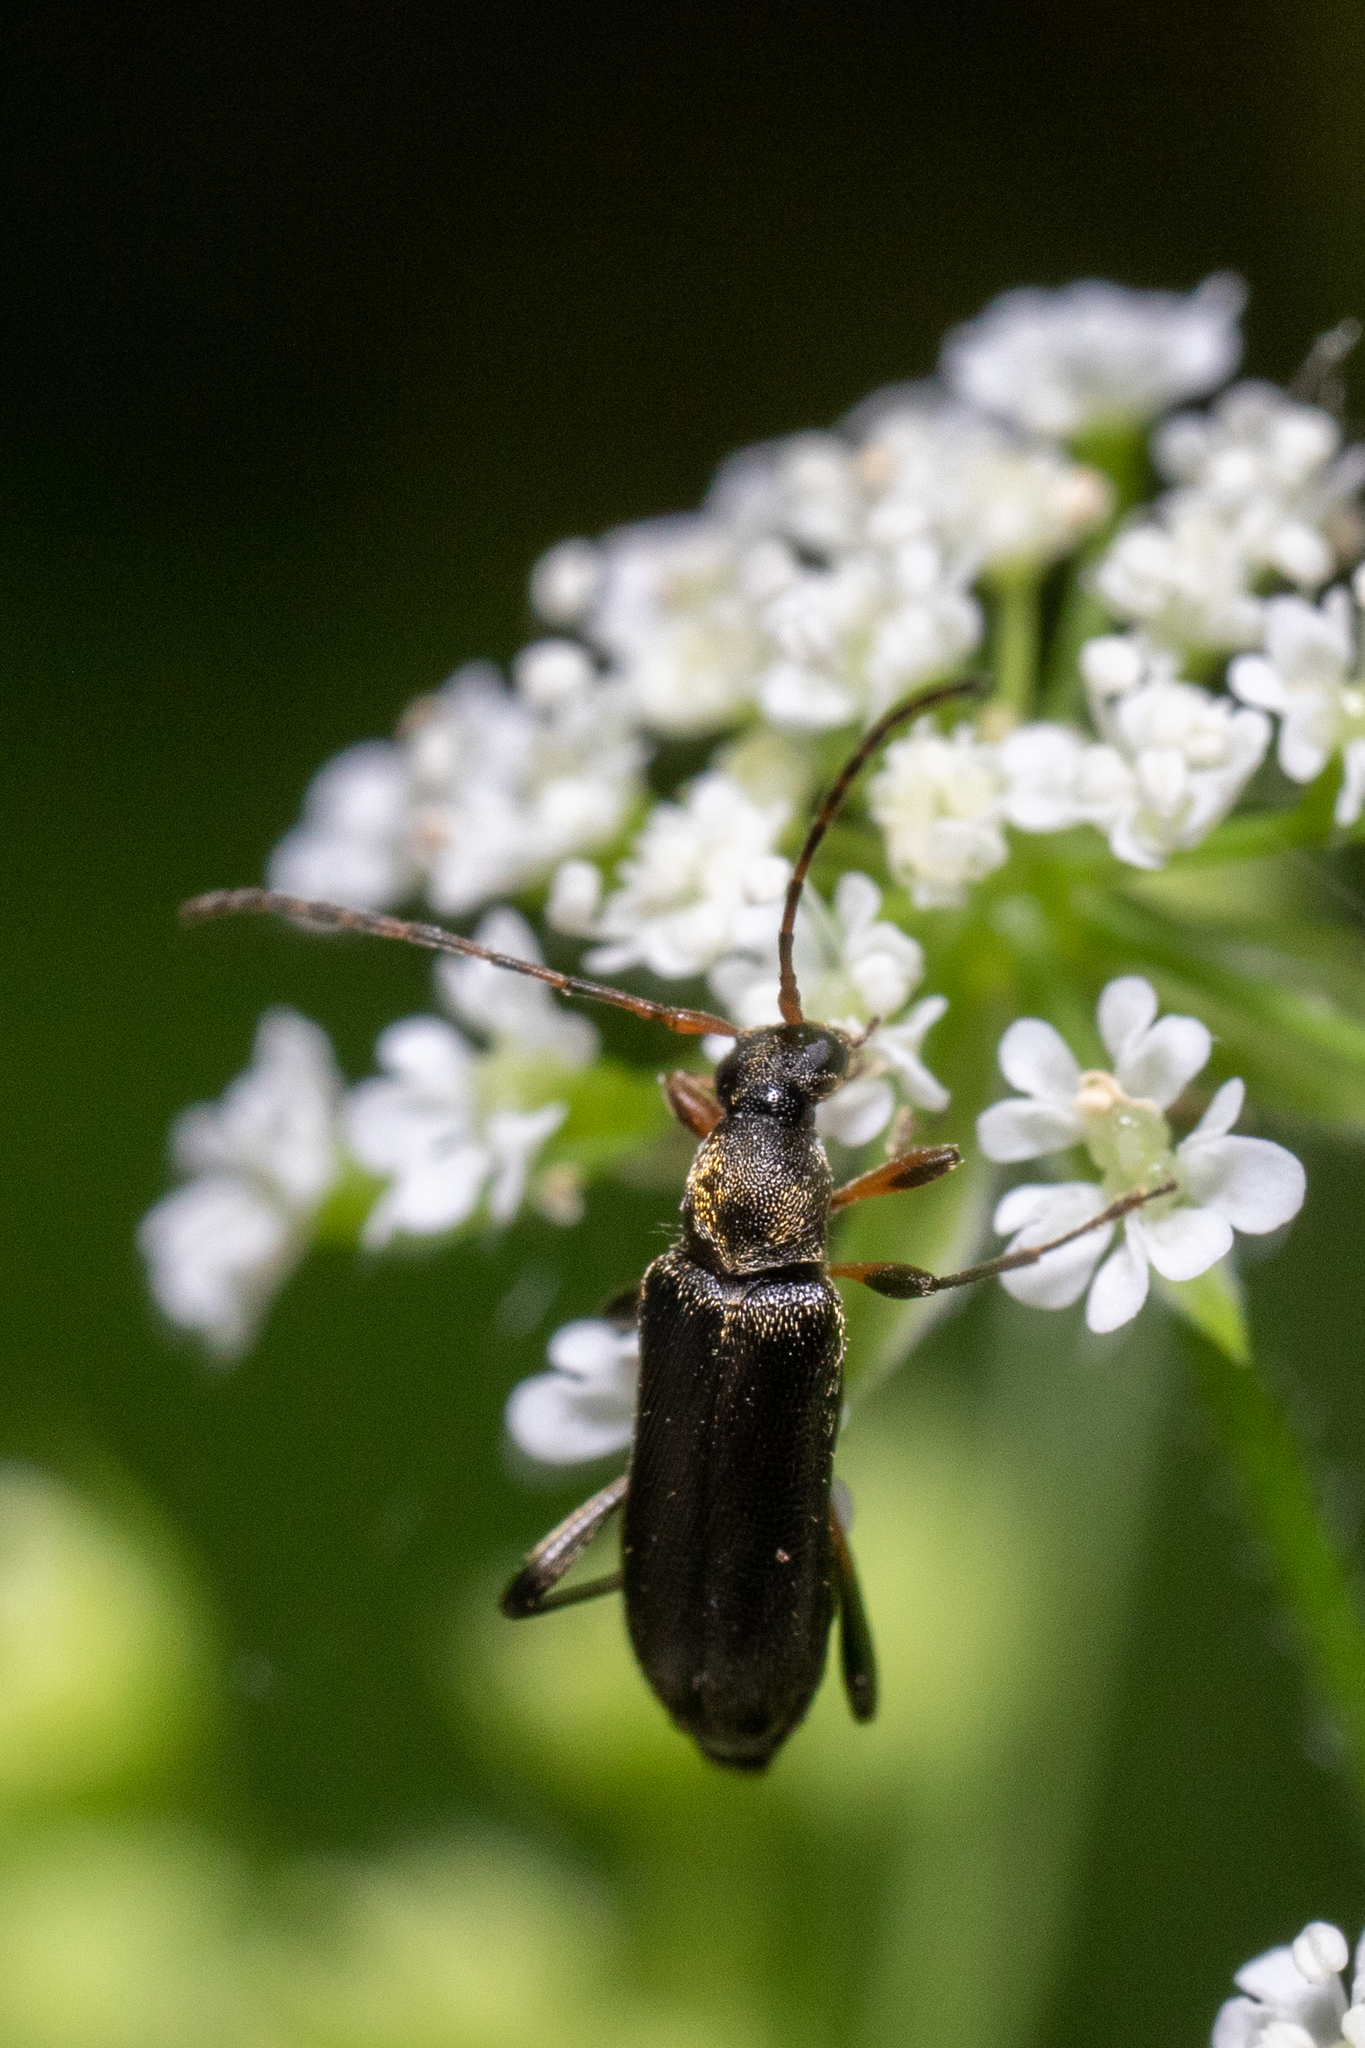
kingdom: Animalia
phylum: Arthropoda
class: Insecta
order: Coleoptera
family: Cerambycidae
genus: Grammoptera
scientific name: Grammoptera ruficornis
